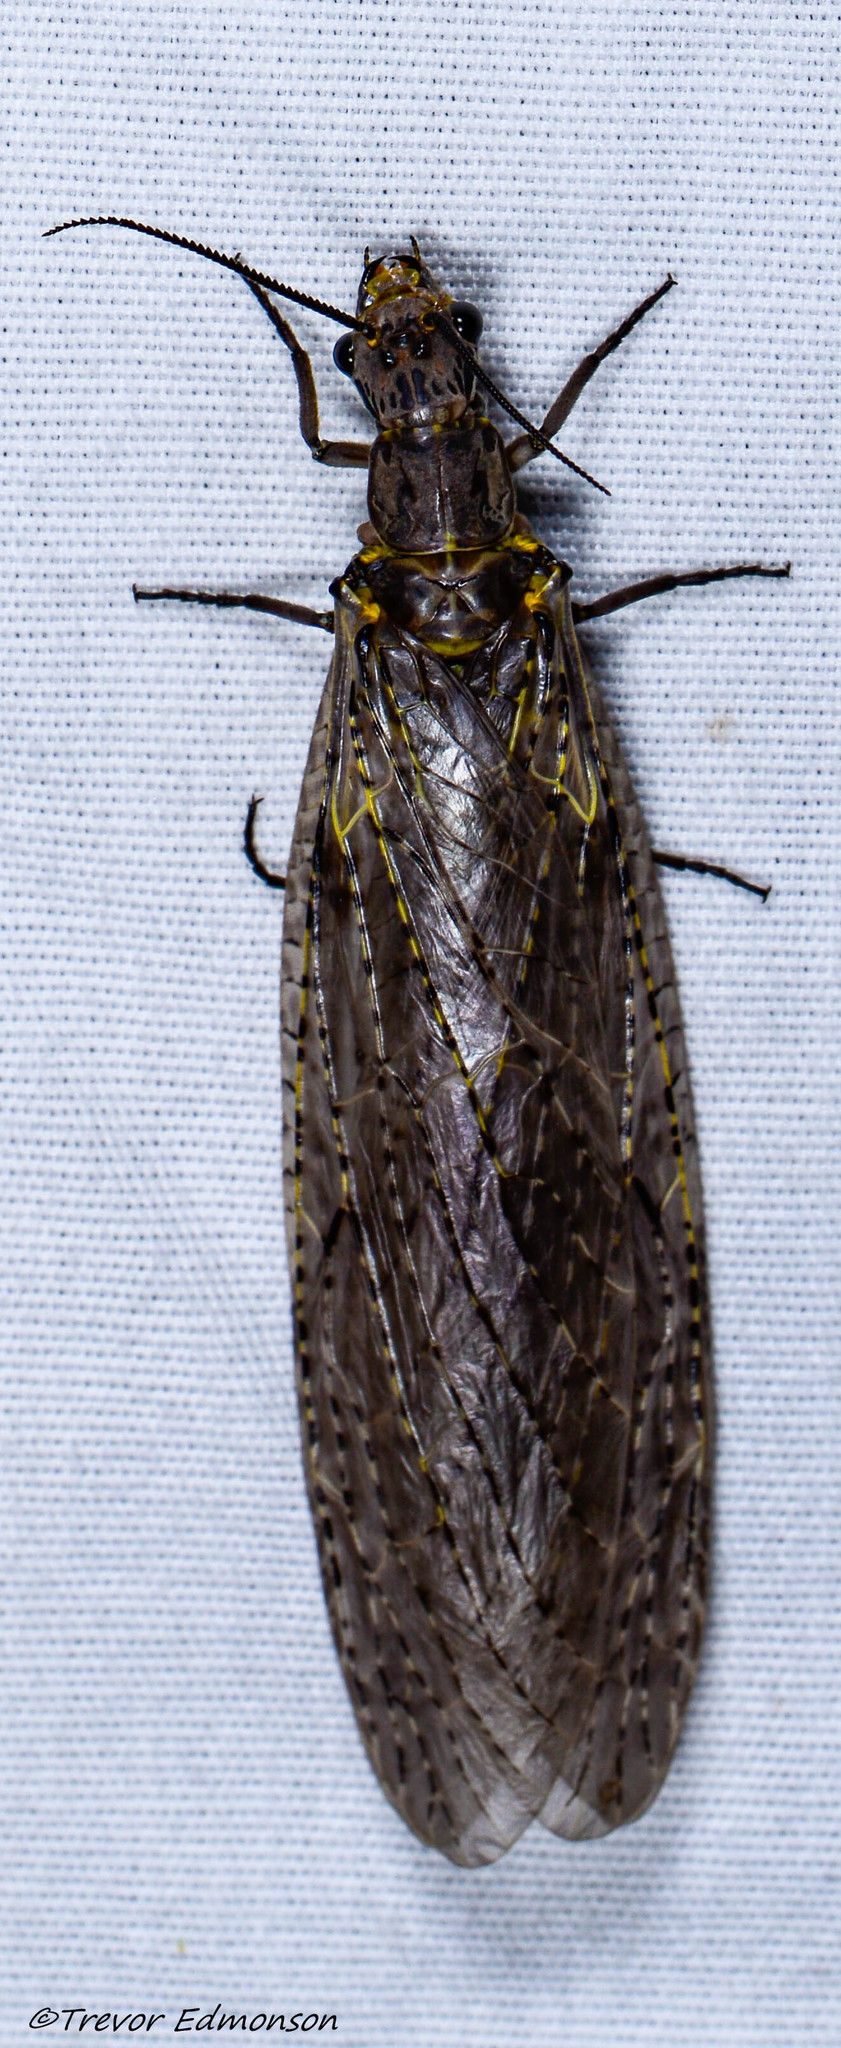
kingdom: Animalia
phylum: Arthropoda
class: Insecta
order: Megaloptera
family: Corydalidae
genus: Chauliodes
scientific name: Chauliodes rastricornis
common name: Spring fishfly
